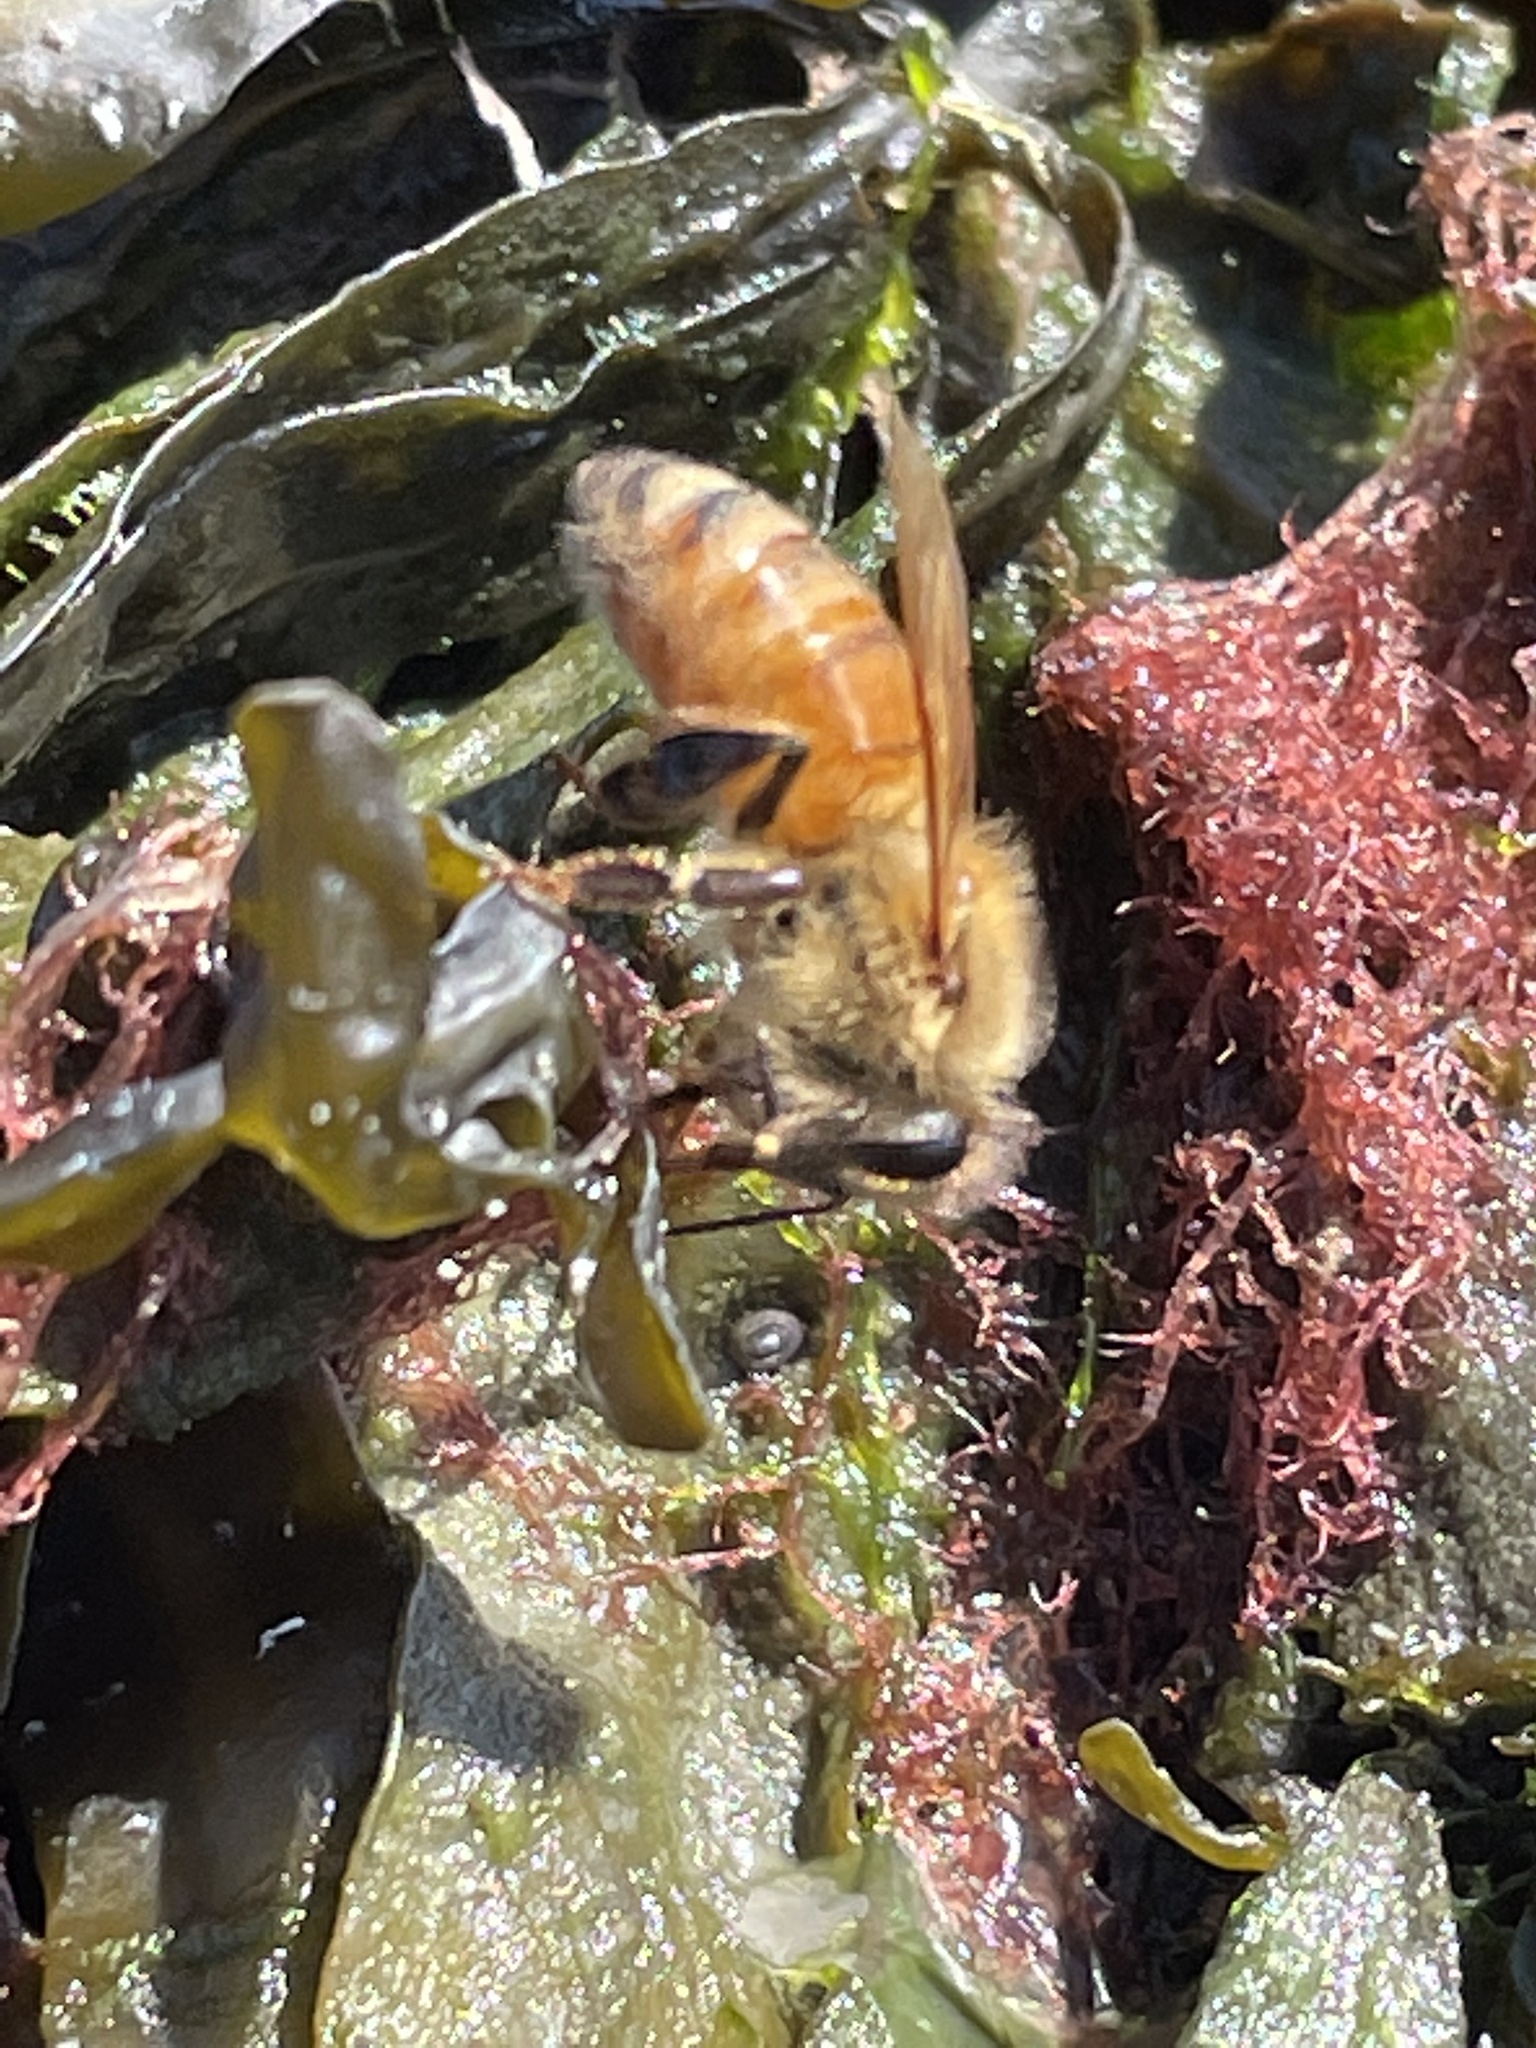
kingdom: Animalia
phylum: Arthropoda
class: Insecta
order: Hymenoptera
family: Apidae
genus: Apis
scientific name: Apis mellifera
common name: Honey bee
